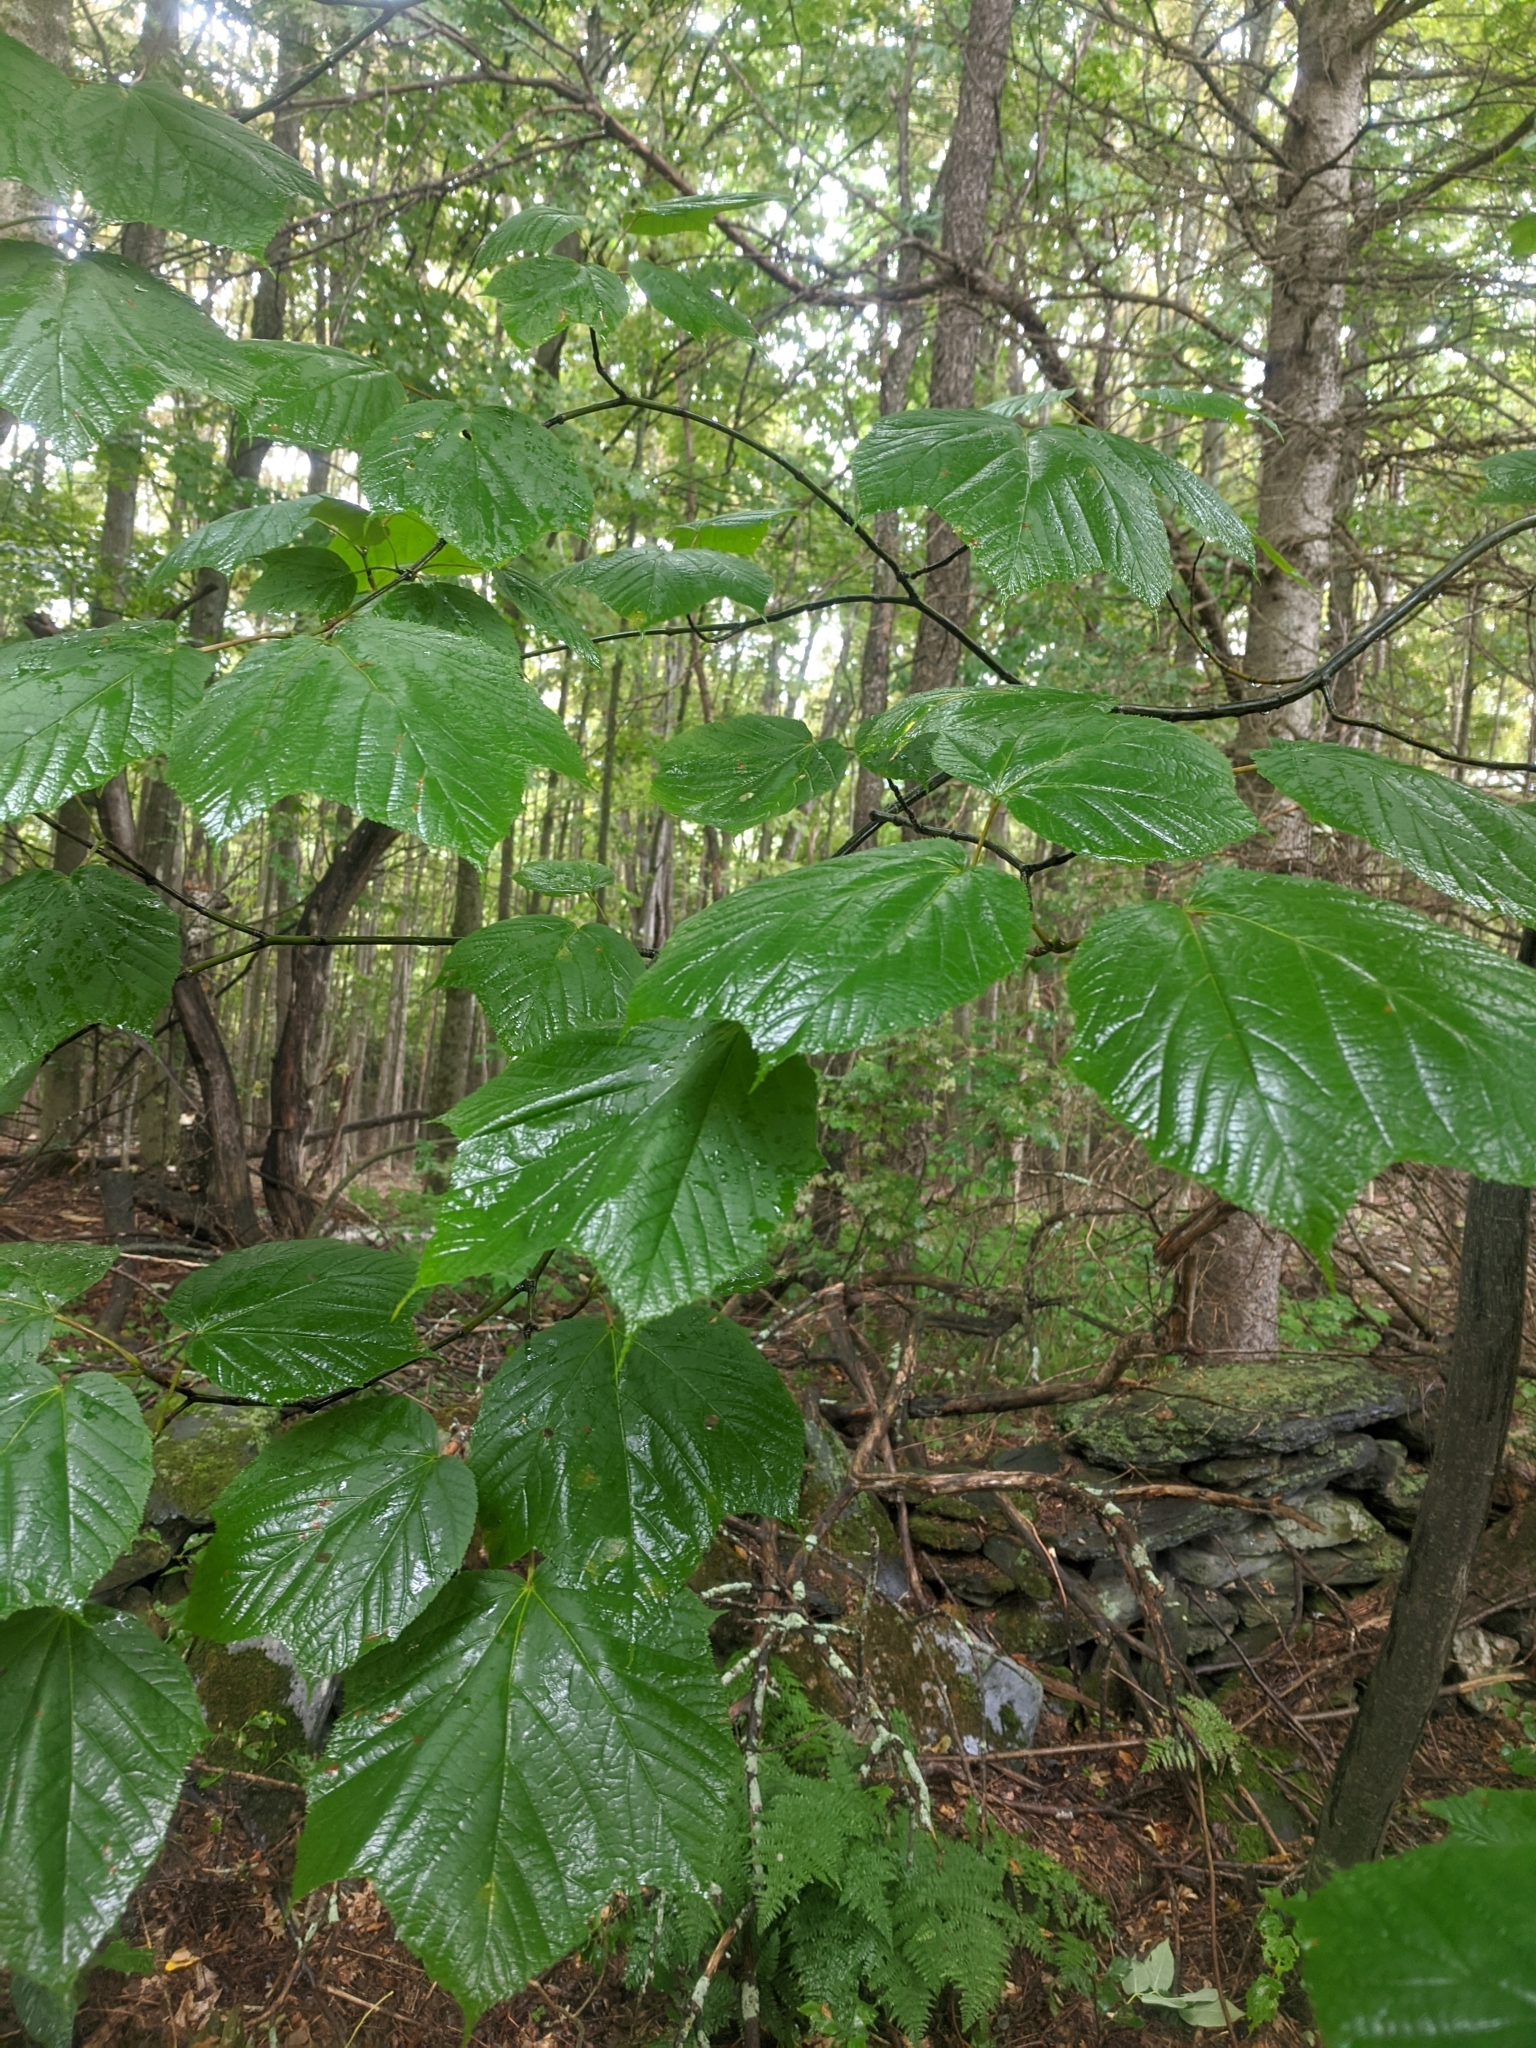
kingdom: Plantae
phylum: Tracheophyta
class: Magnoliopsida
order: Sapindales
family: Sapindaceae
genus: Acer
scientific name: Acer pensylvanicum
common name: Moosewood
